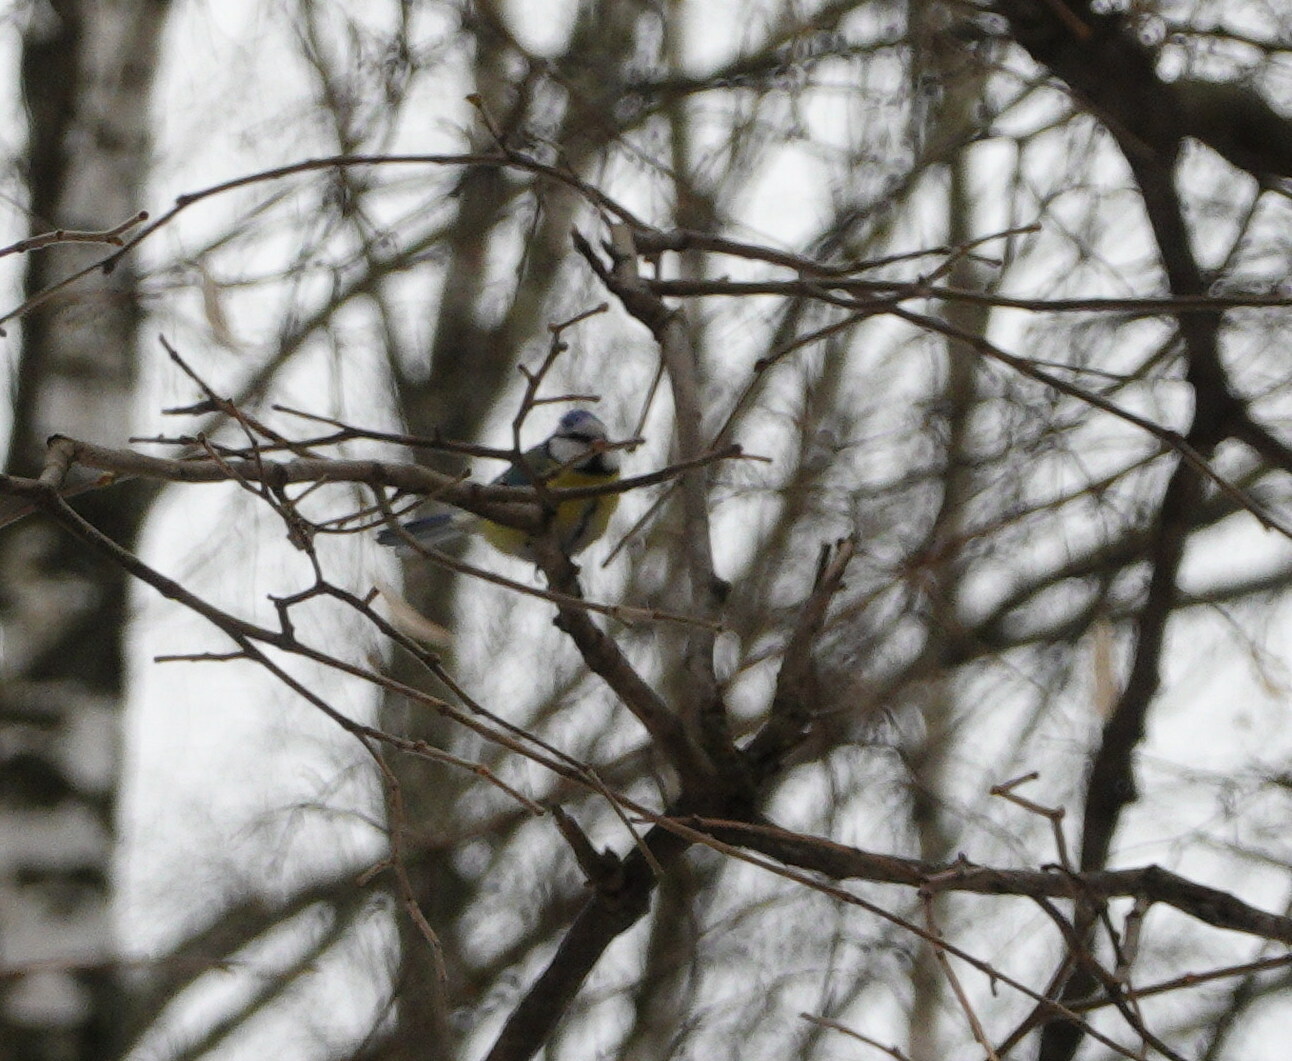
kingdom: Animalia
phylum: Chordata
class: Aves
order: Passeriformes
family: Paridae
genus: Cyanistes
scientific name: Cyanistes caeruleus
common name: Eurasian blue tit
